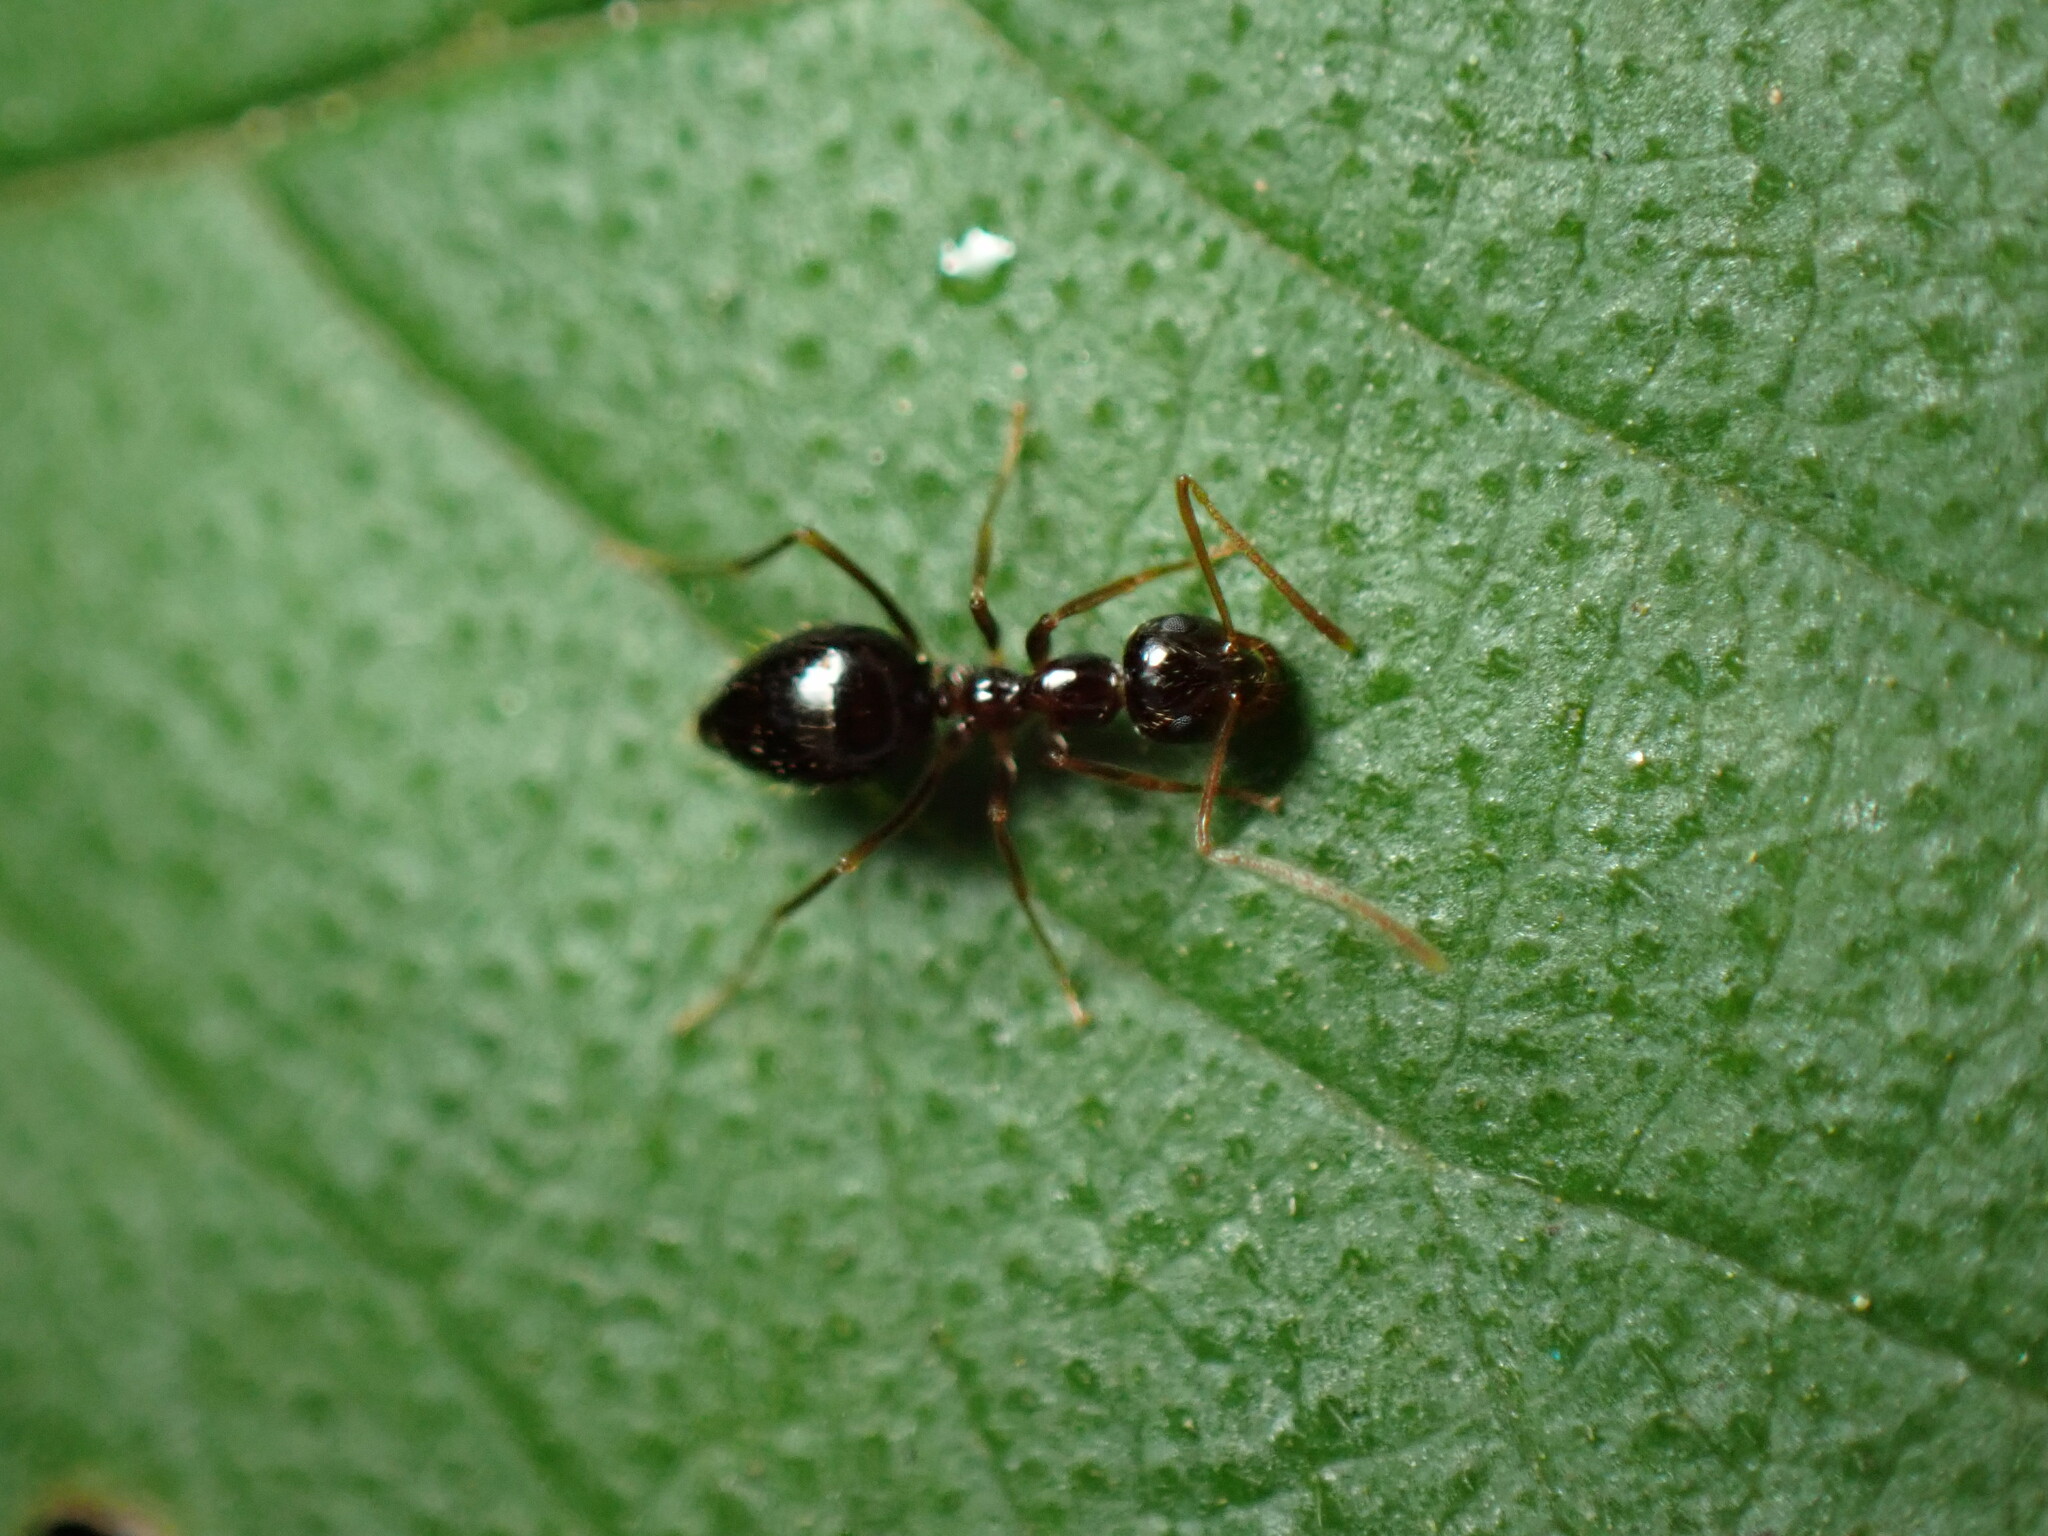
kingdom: Animalia
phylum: Arthropoda
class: Insecta
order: Hymenoptera
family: Formicidae
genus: Prenolepis
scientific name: Prenolepis imparis
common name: Small honey ant
